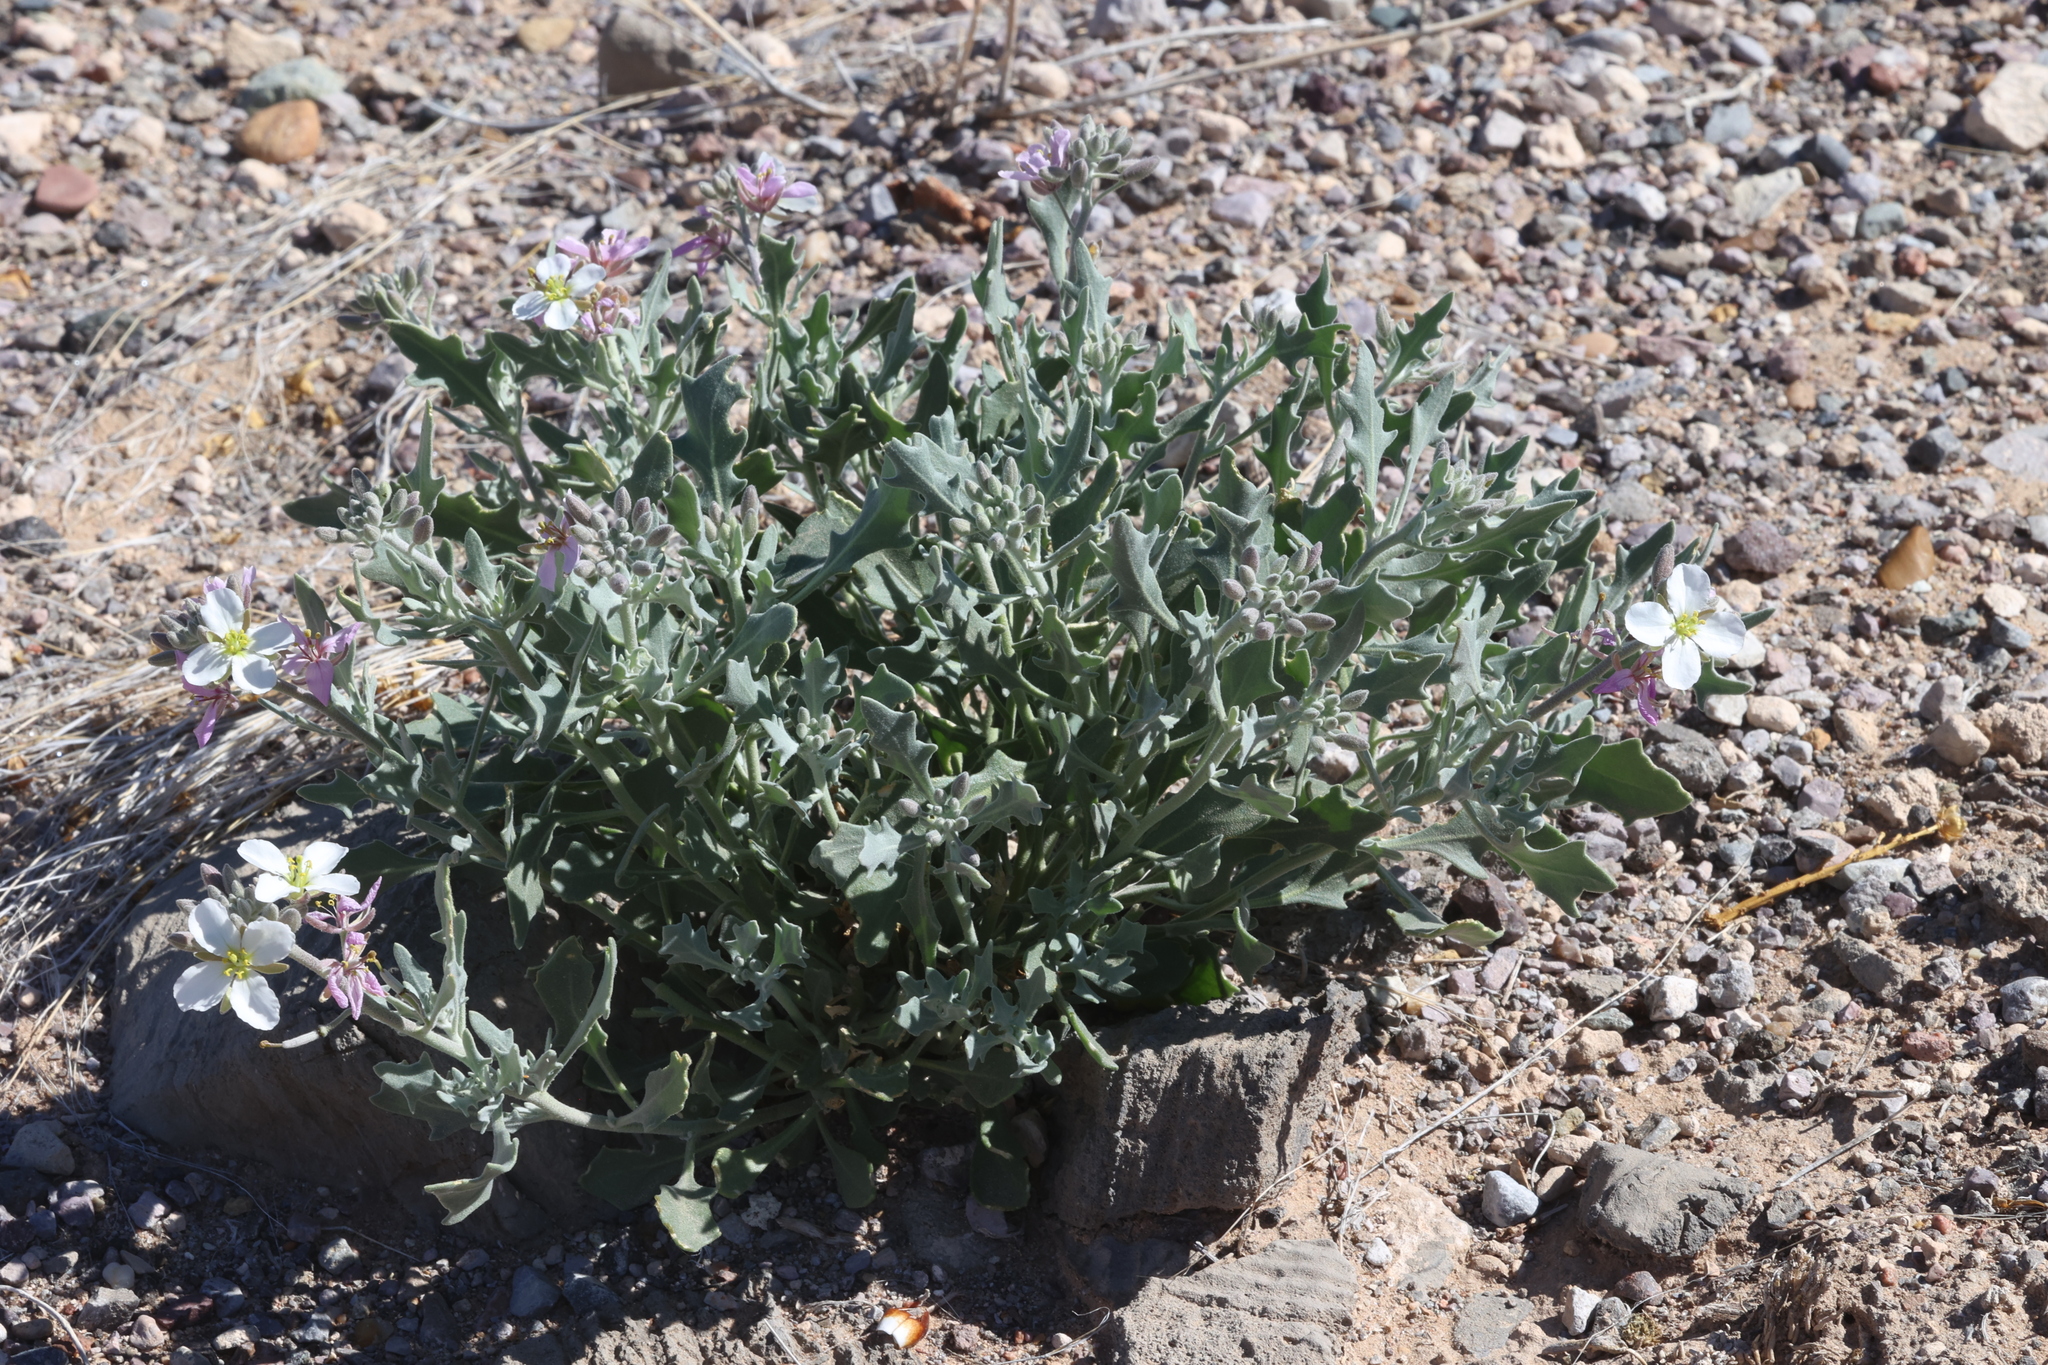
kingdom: Plantae
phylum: Tracheophyta
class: Magnoliopsida
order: Brassicales
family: Brassicaceae
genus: Nerisyrenia
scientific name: Nerisyrenia camporum
